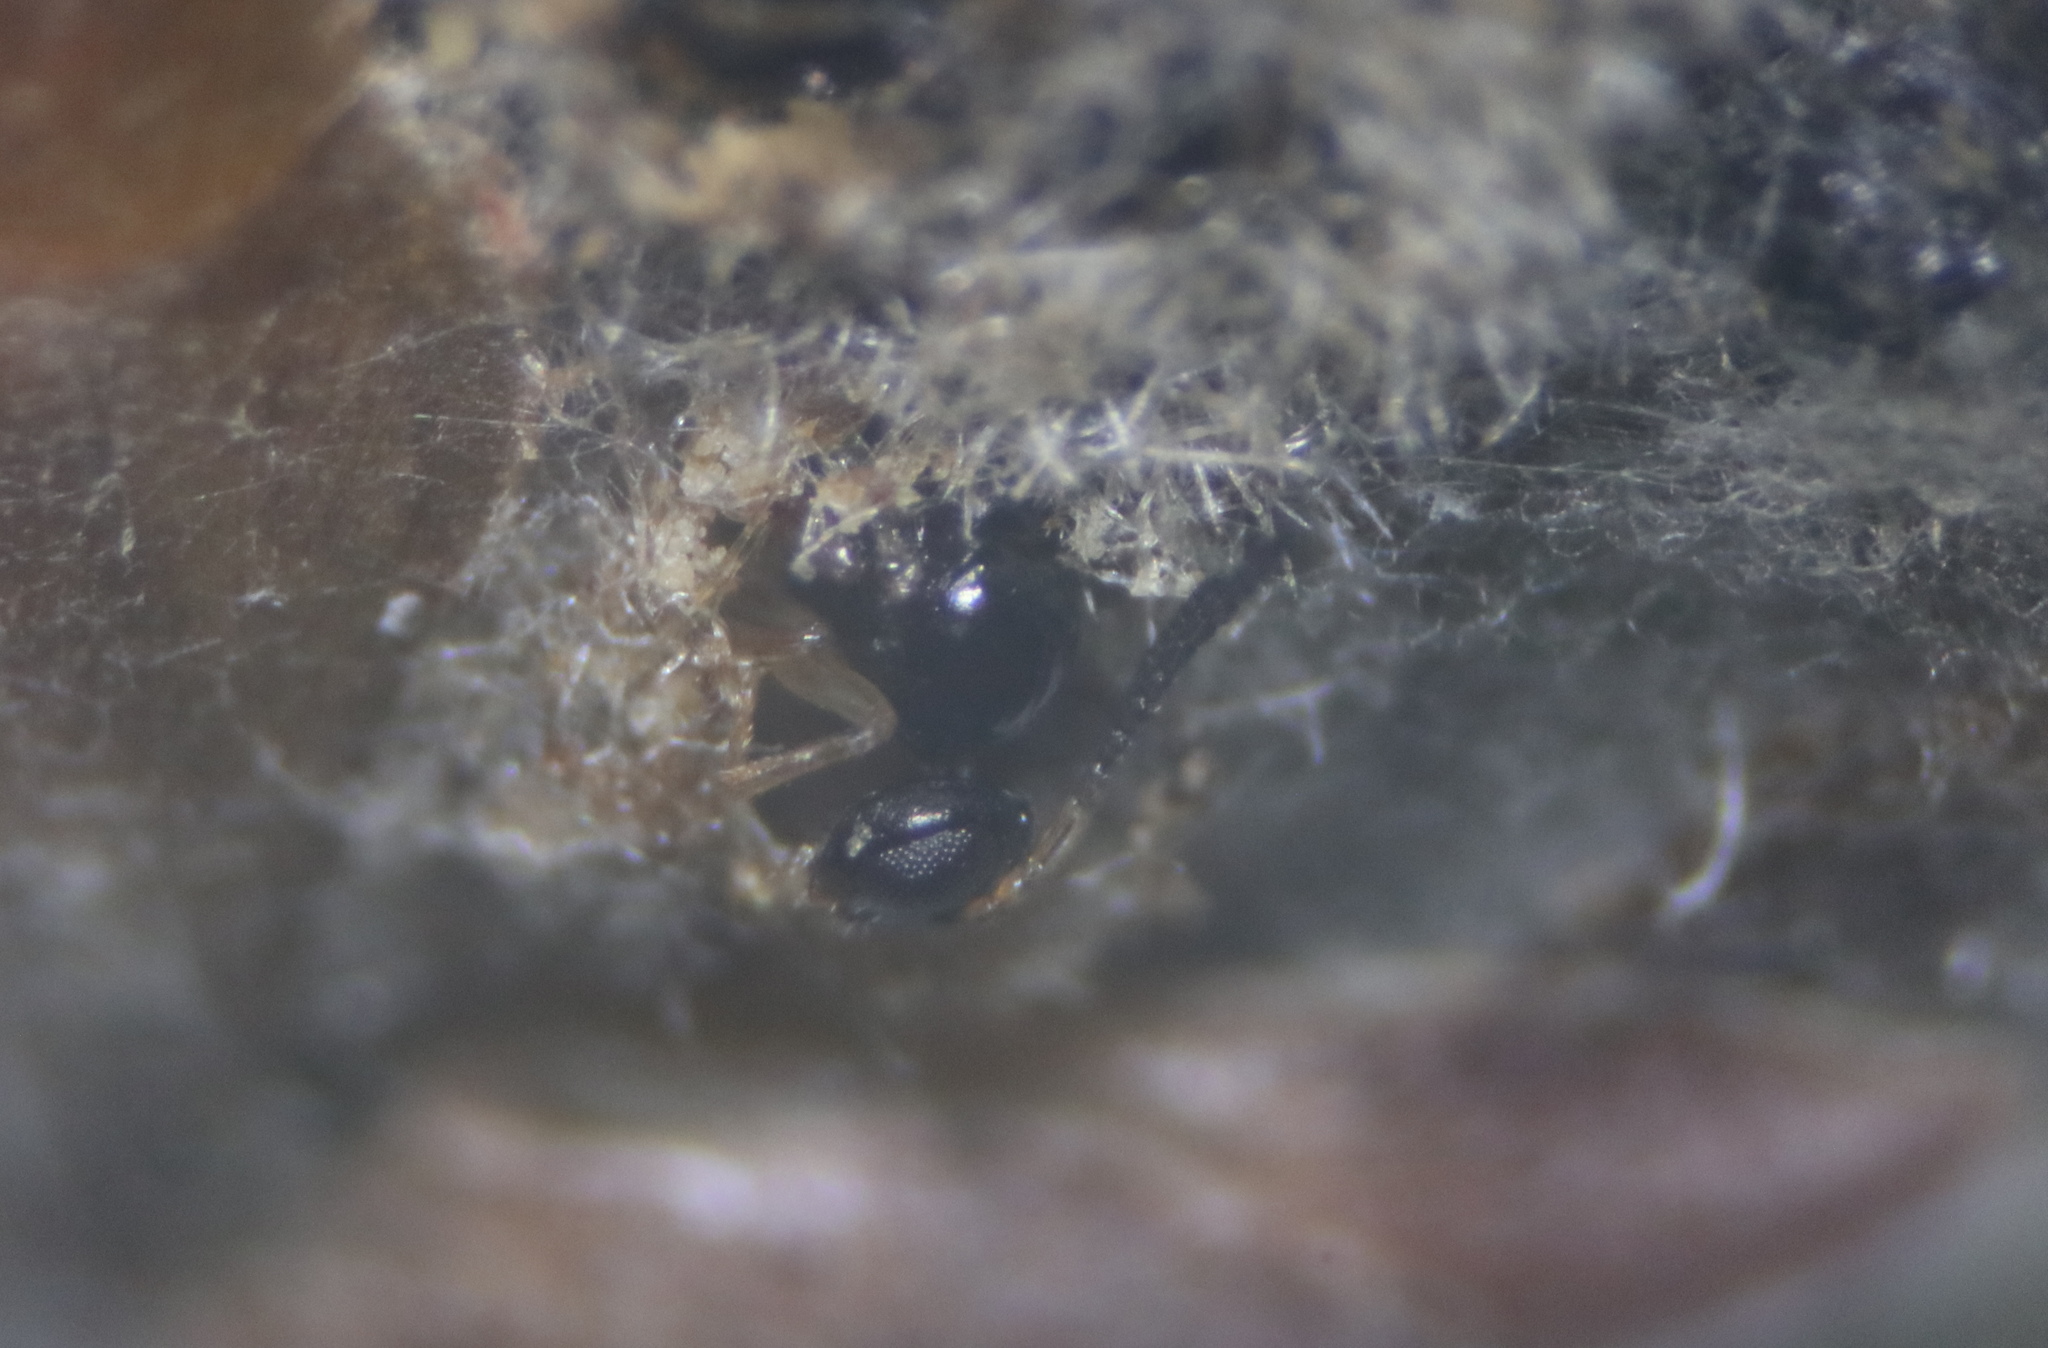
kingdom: Animalia
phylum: Arthropoda
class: Insecta
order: Hymenoptera
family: Cynipidae
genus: Neuroterus
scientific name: Neuroterus minutulus
